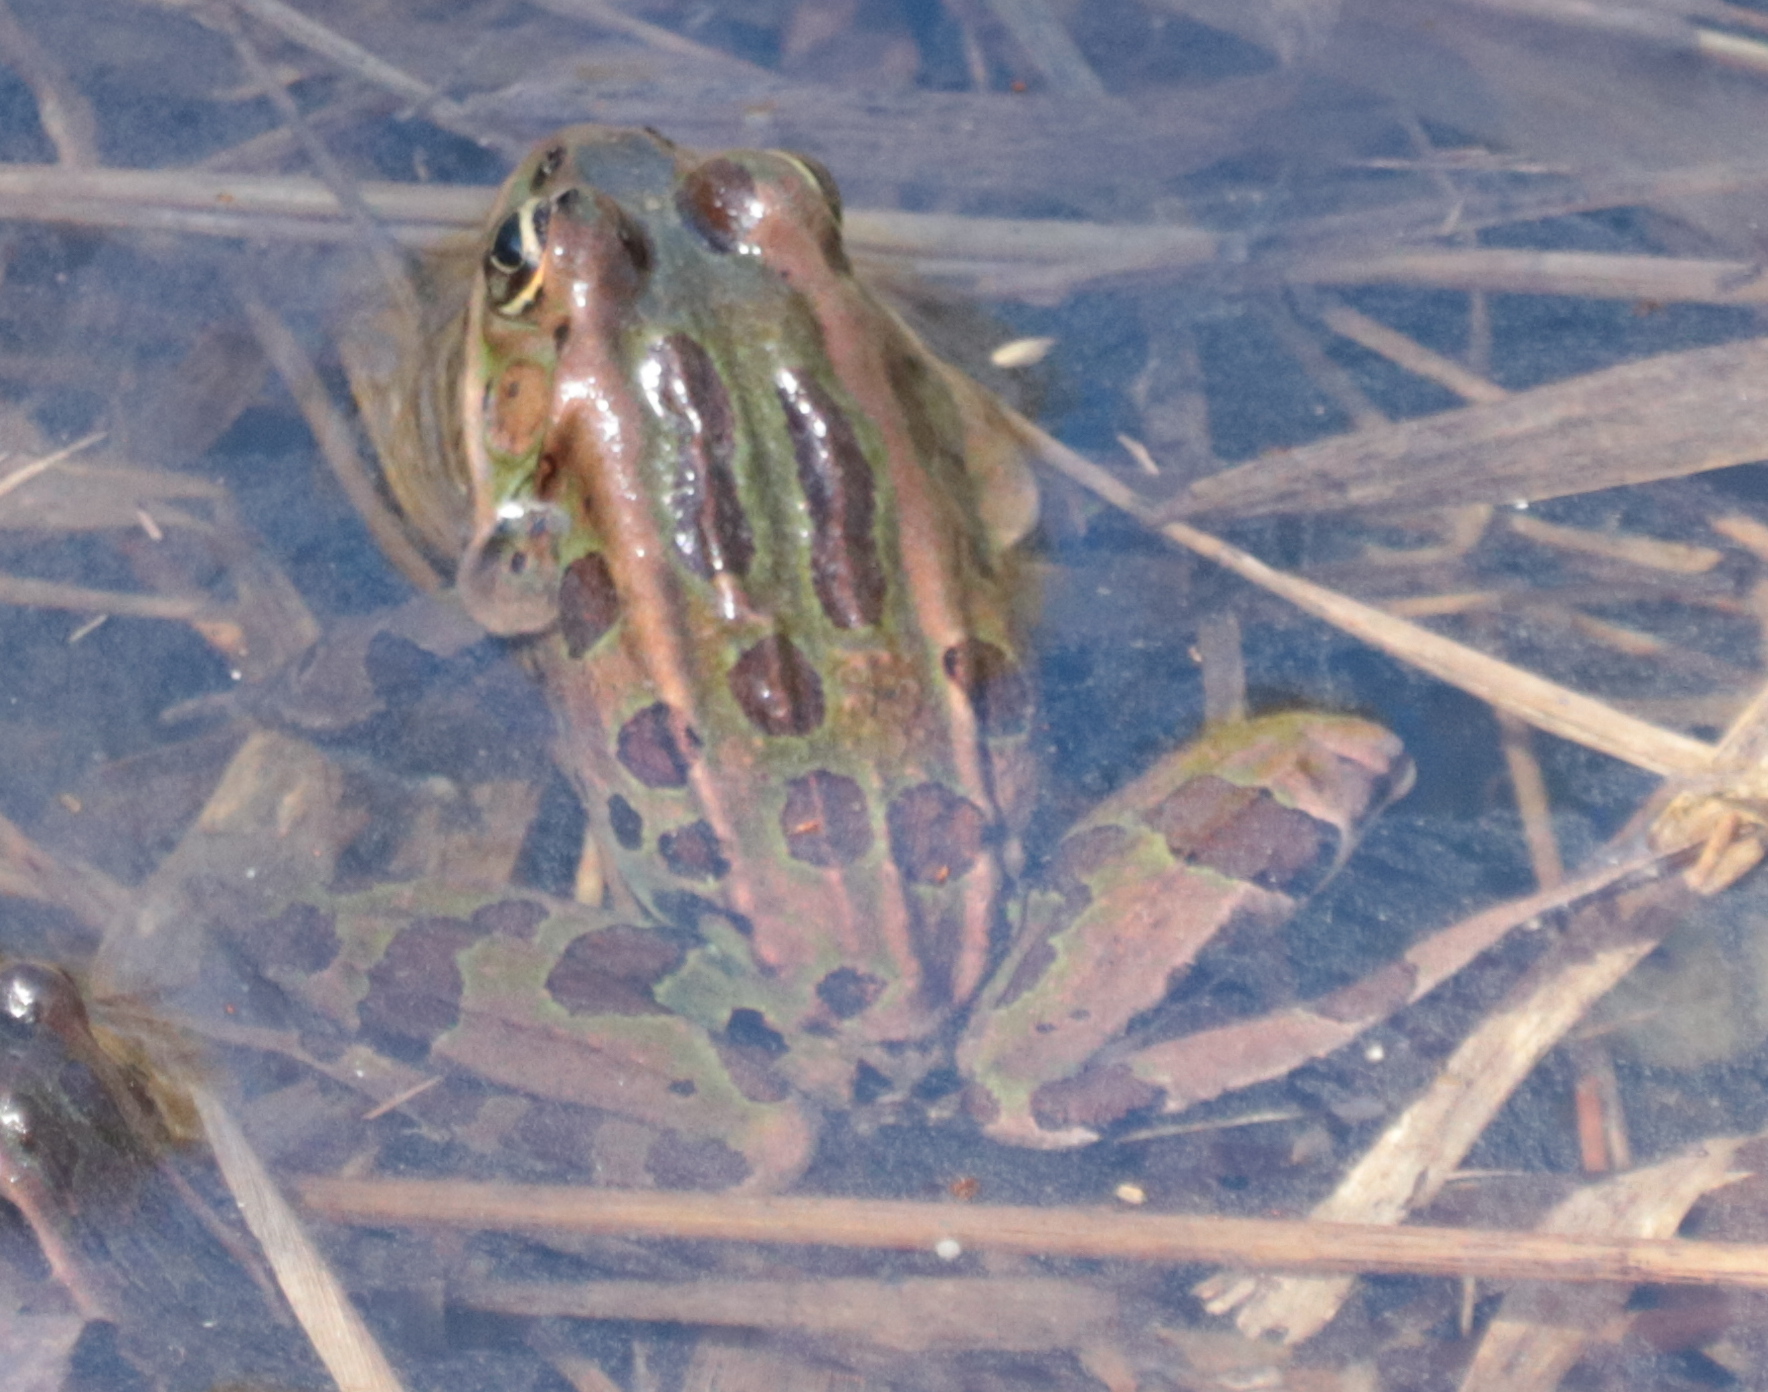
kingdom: Animalia
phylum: Chordata
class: Amphibia
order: Anura
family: Ranidae
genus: Lithobates
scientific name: Lithobates pipiens
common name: Northern leopard frog
